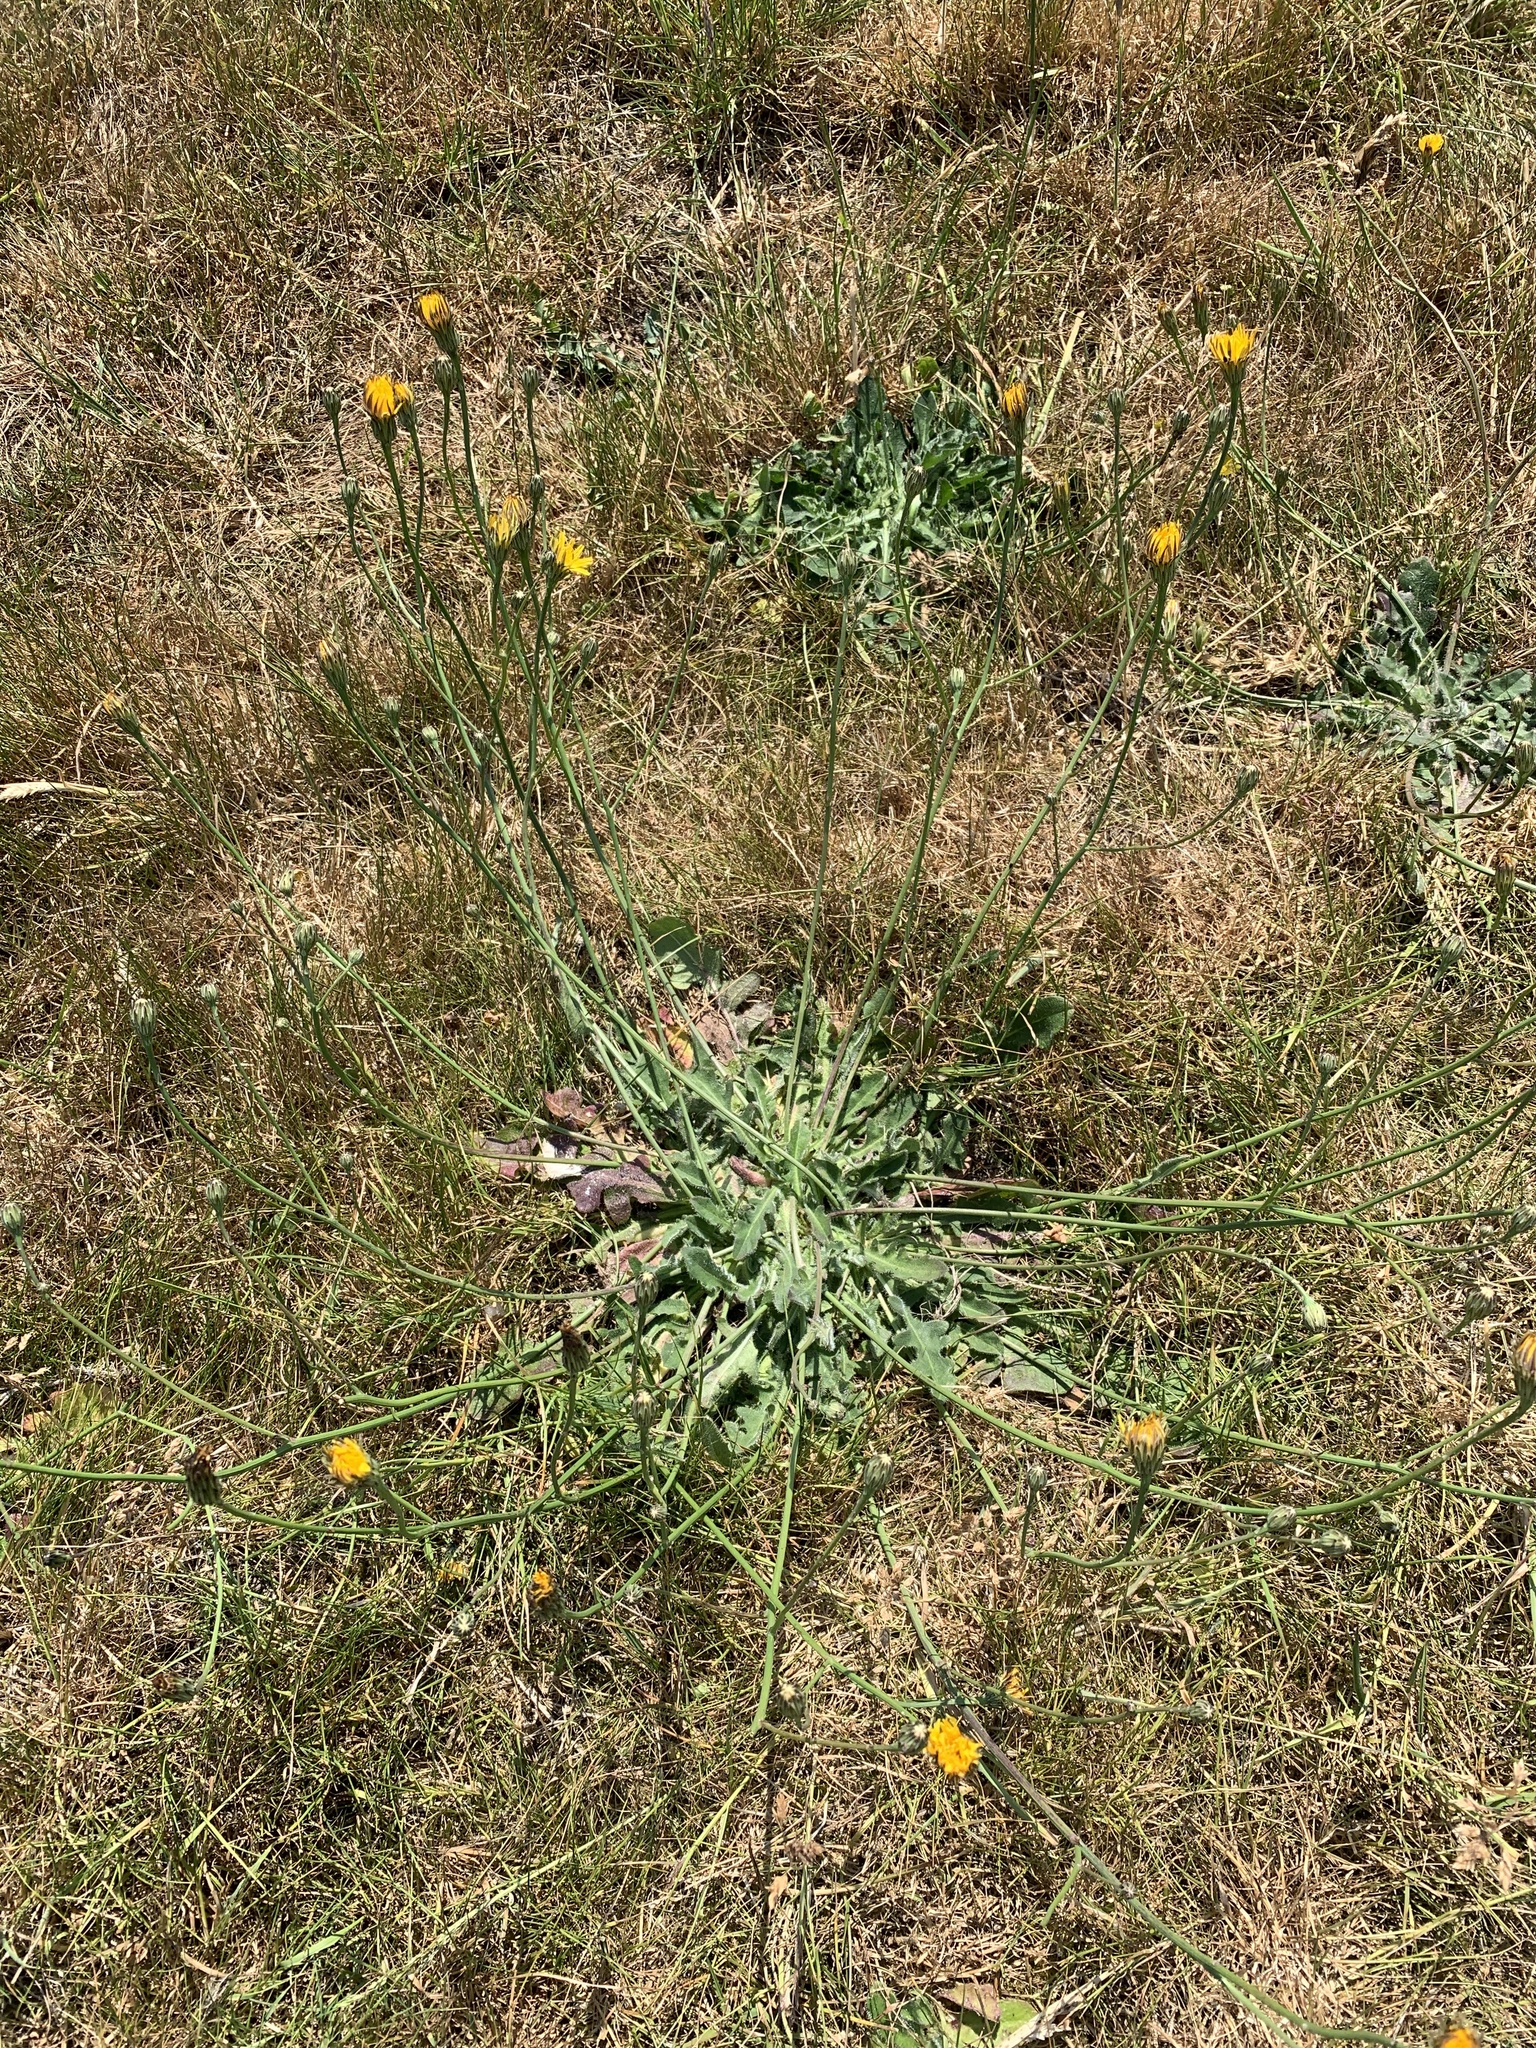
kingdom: Plantae
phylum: Tracheophyta
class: Magnoliopsida
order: Asterales
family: Asteraceae
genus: Hypochaeris
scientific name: Hypochaeris radicata
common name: Flatweed
